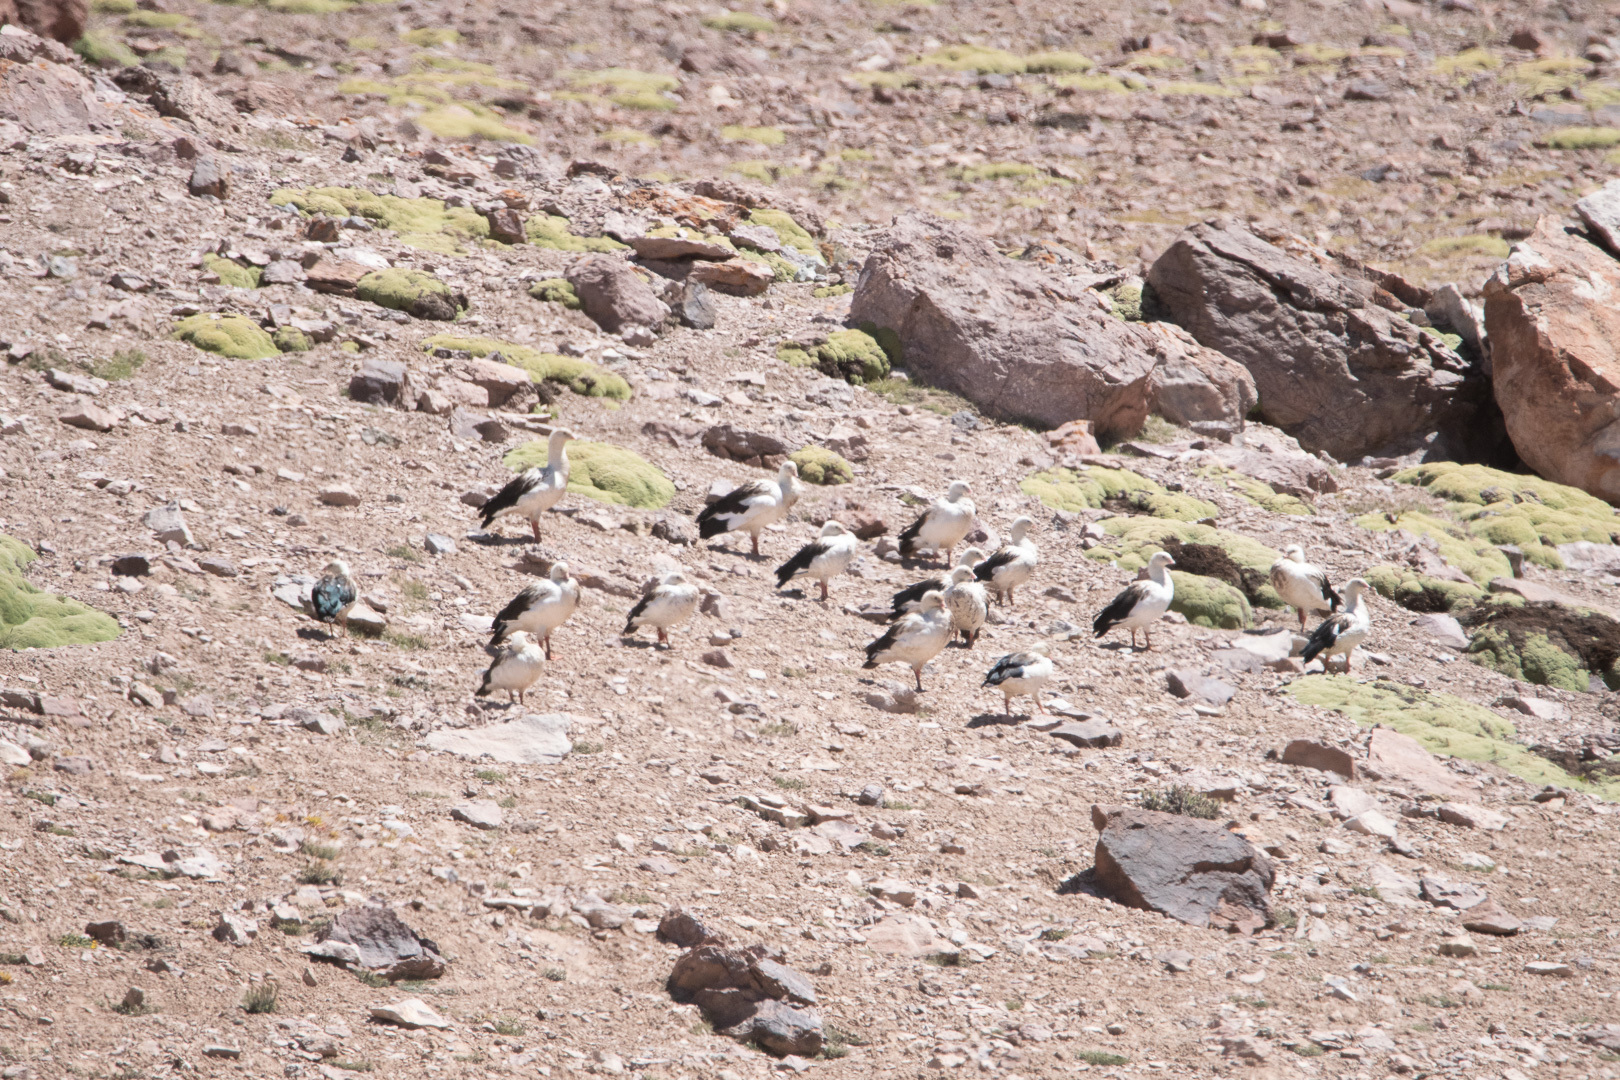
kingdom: Animalia
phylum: Chordata
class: Aves
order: Anseriformes
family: Anatidae
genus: Chloephaga
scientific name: Chloephaga melanoptera
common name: Andean goose
